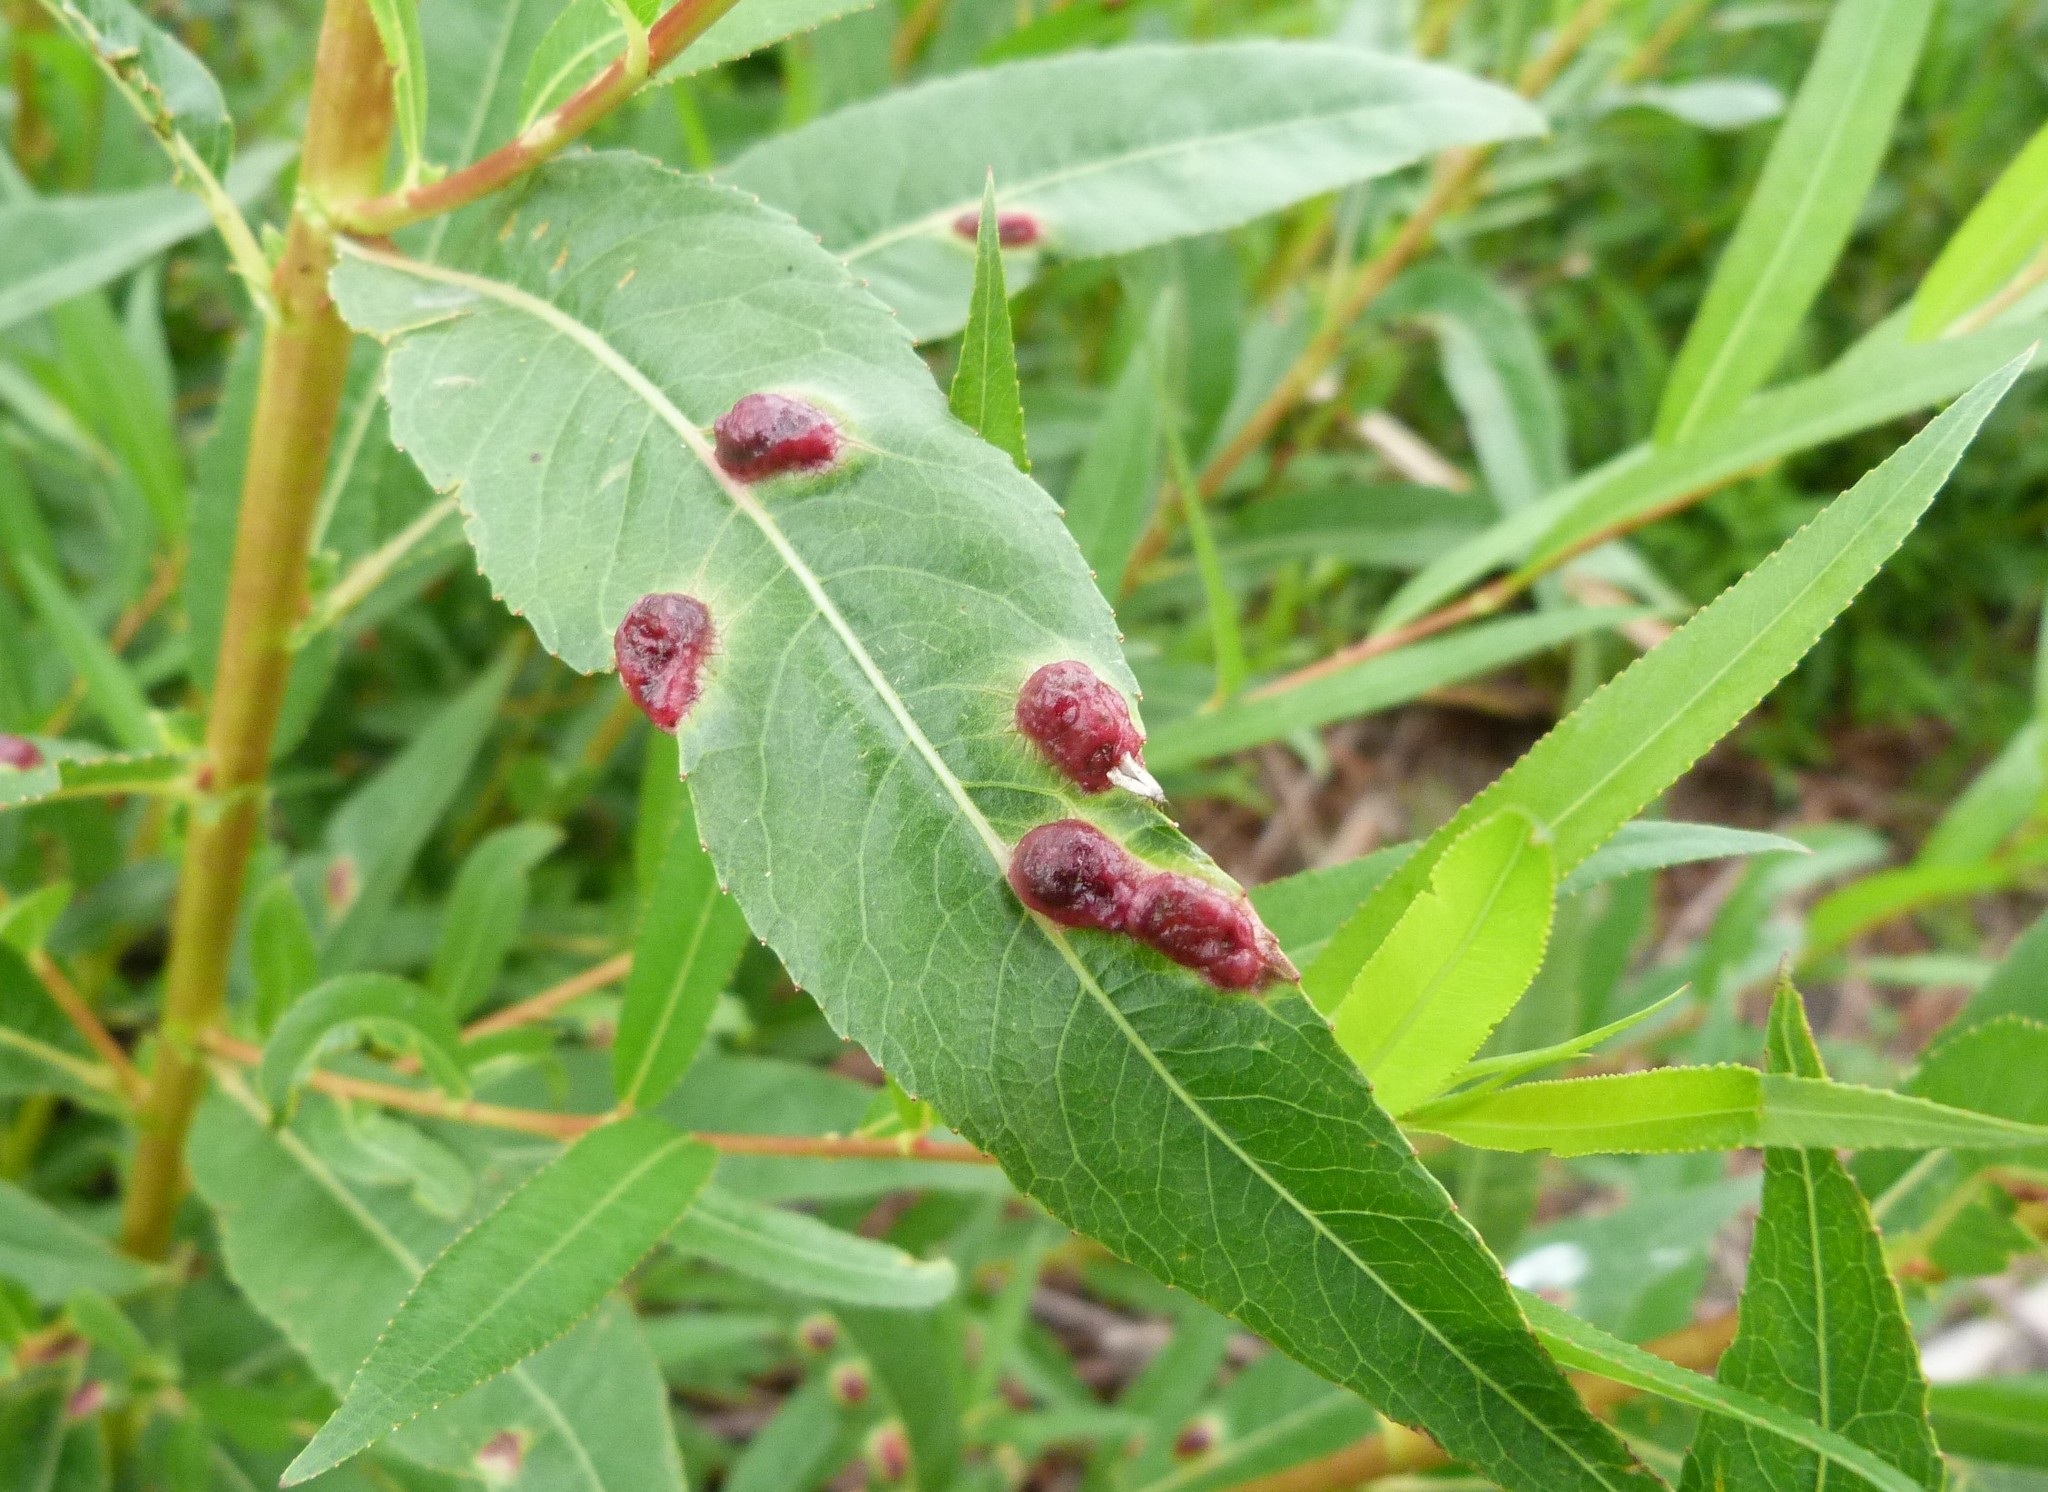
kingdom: Animalia
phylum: Arthropoda
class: Insecta
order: Hymenoptera
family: Tenthredinidae
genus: Pontania
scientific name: Pontania proxima
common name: Common sawfly
